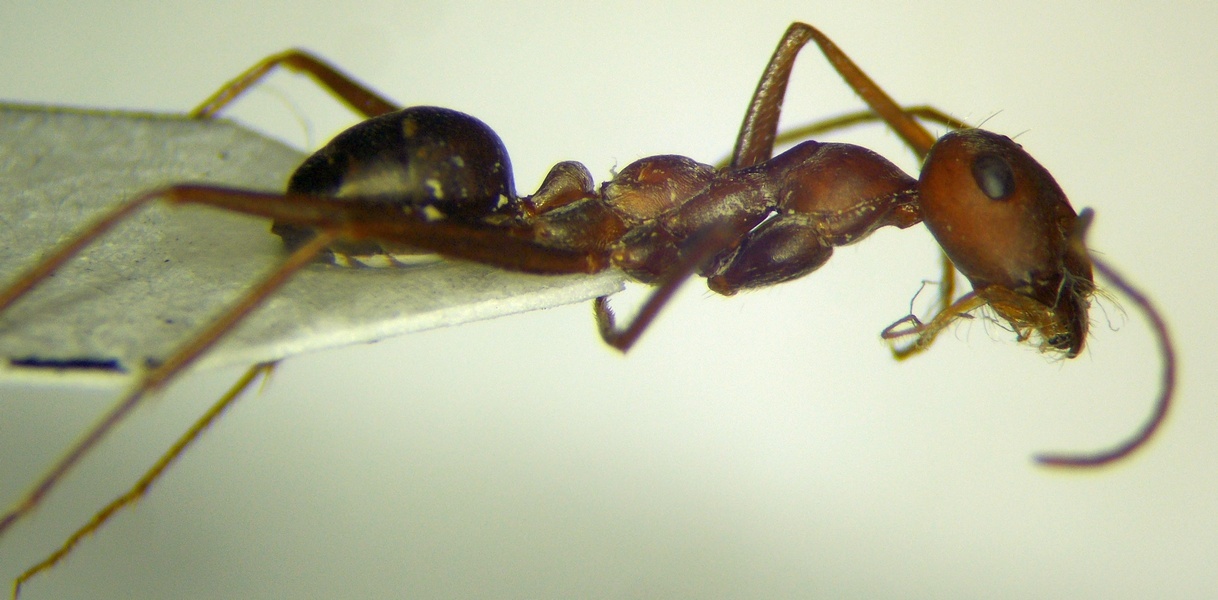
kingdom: Animalia
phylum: Arthropoda
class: Insecta
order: Hymenoptera
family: Formicidae
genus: Cataglyphis
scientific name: Cataglyphis aphrodite
